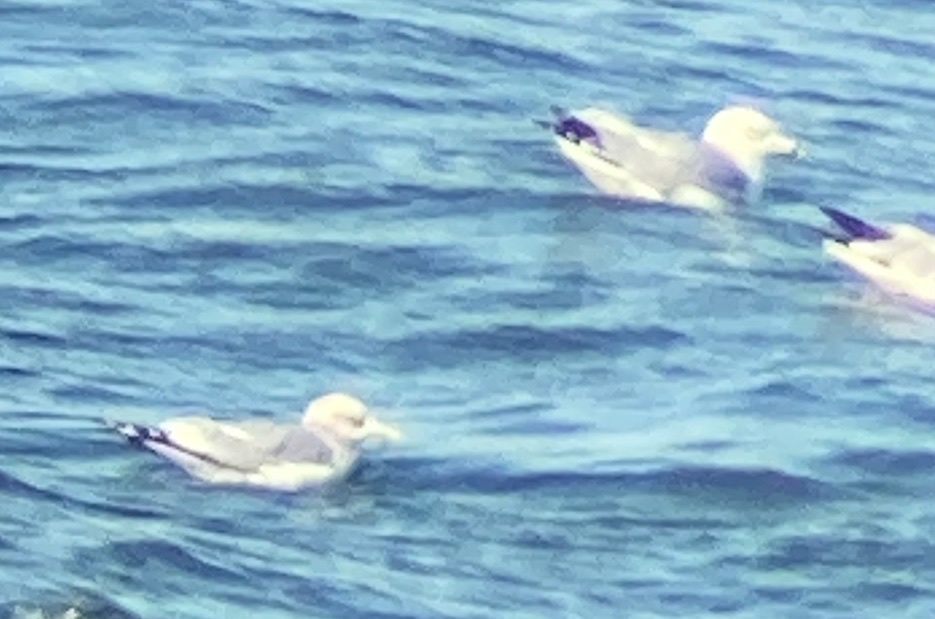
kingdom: Animalia
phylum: Chordata
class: Aves
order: Charadriiformes
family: Laridae
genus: Larus
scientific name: Larus brachyrhynchus
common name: Short-billed gull
